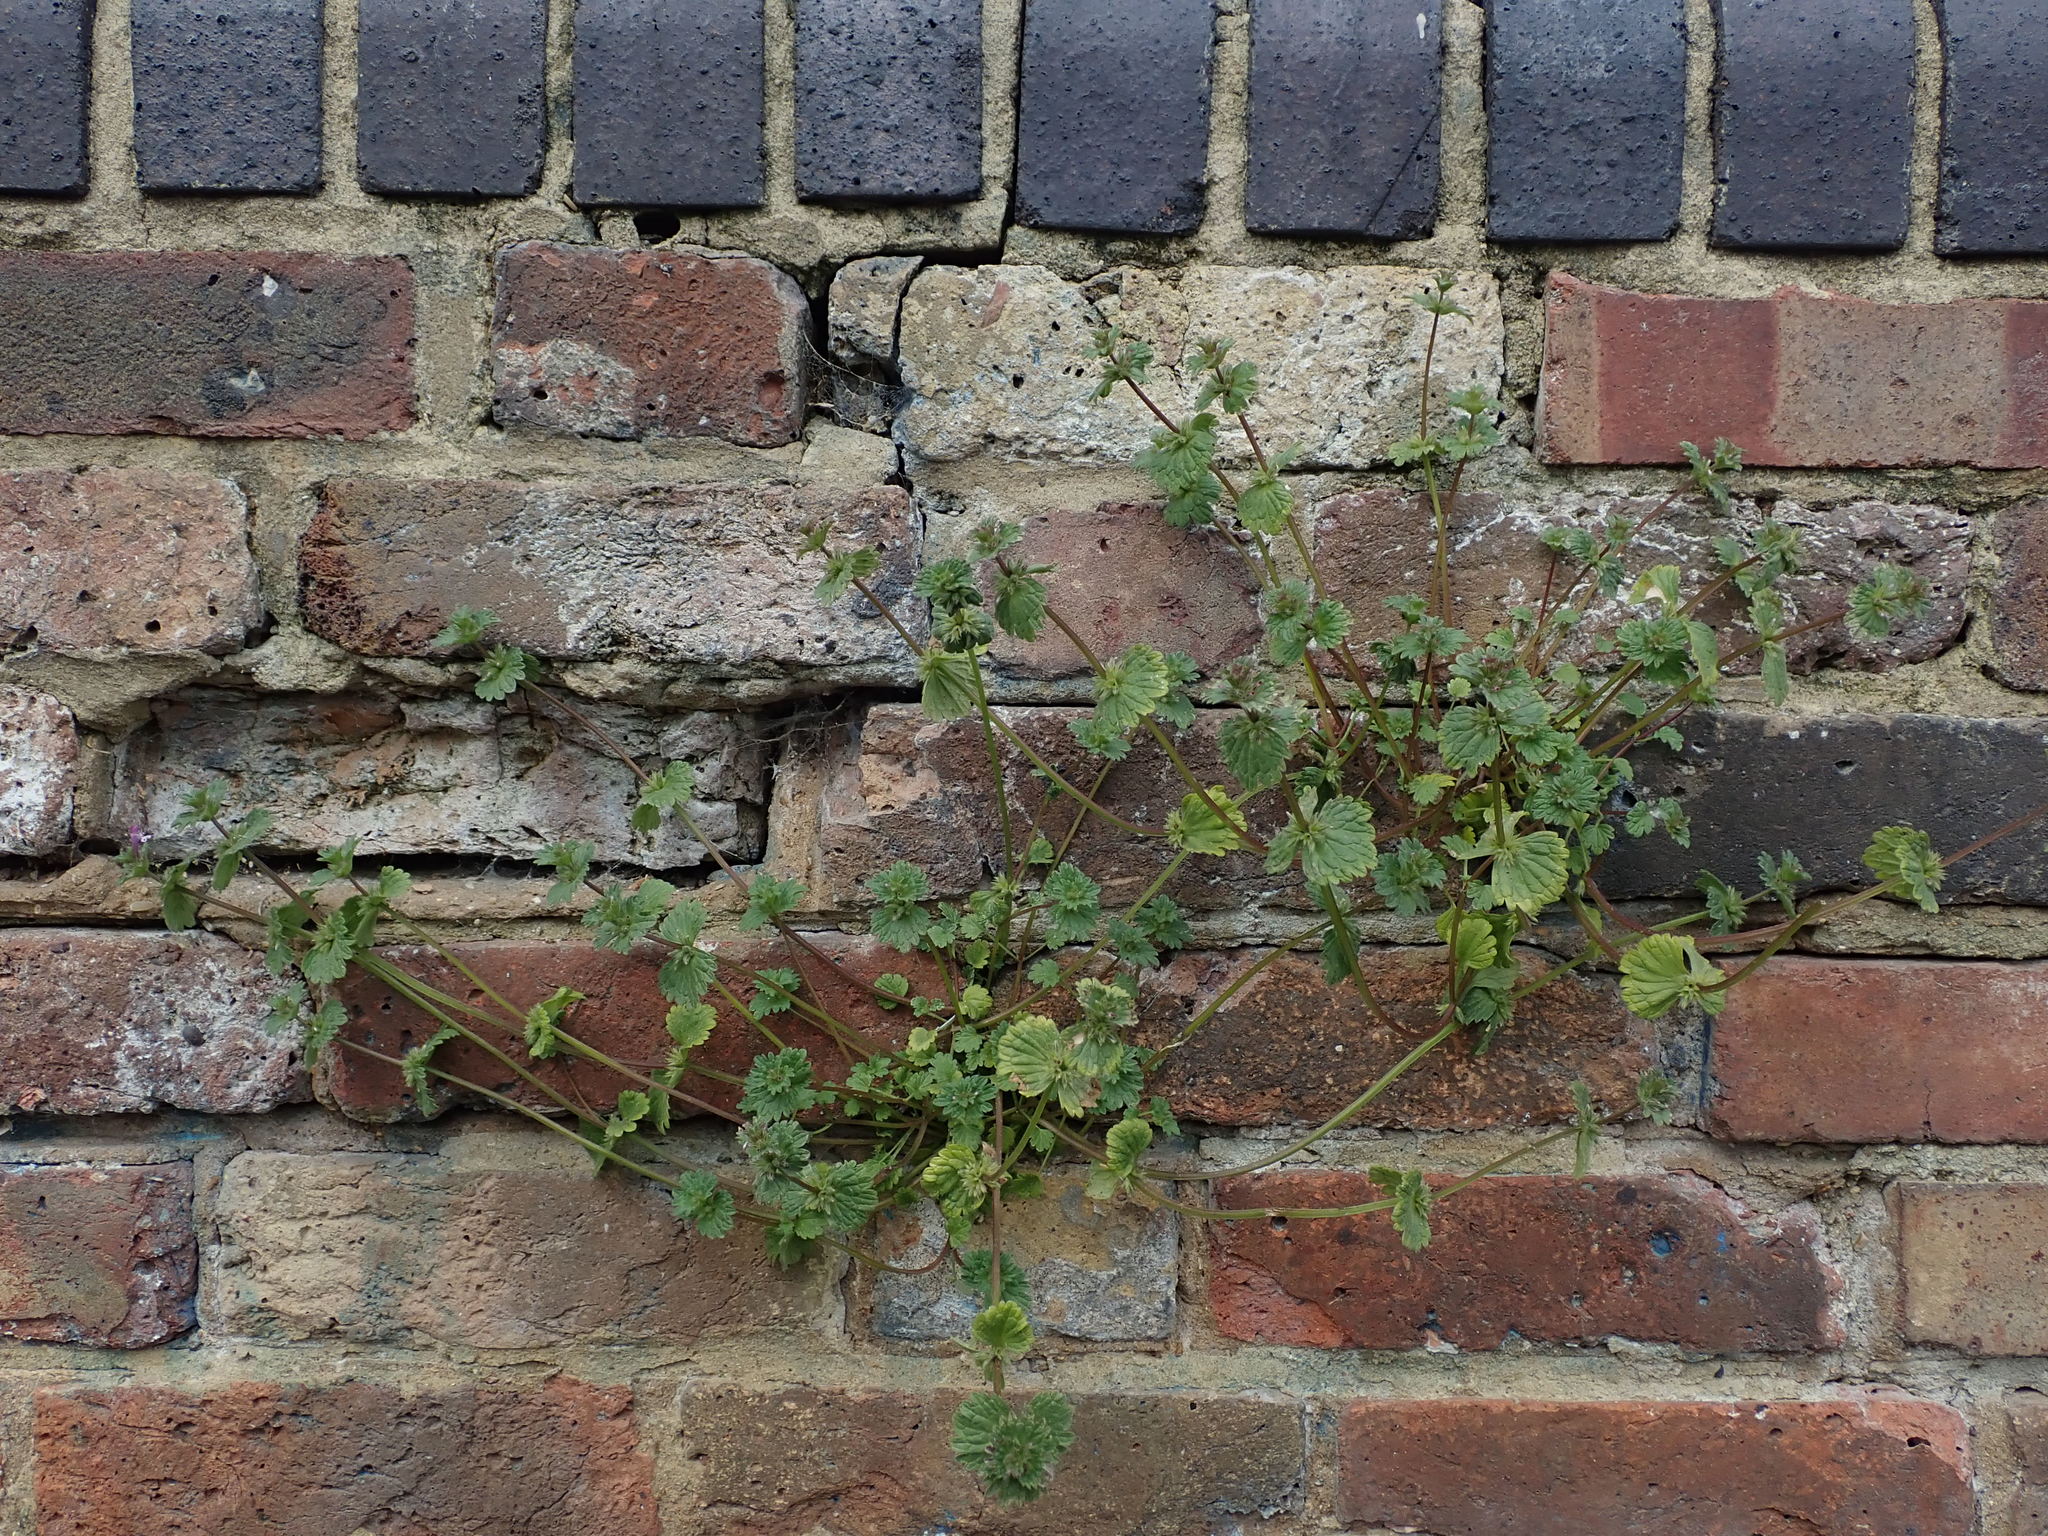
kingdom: Plantae
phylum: Tracheophyta
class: Magnoliopsida
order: Lamiales
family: Lamiaceae
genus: Lamium
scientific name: Lamium amplexicaule
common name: Henbit dead-nettle
